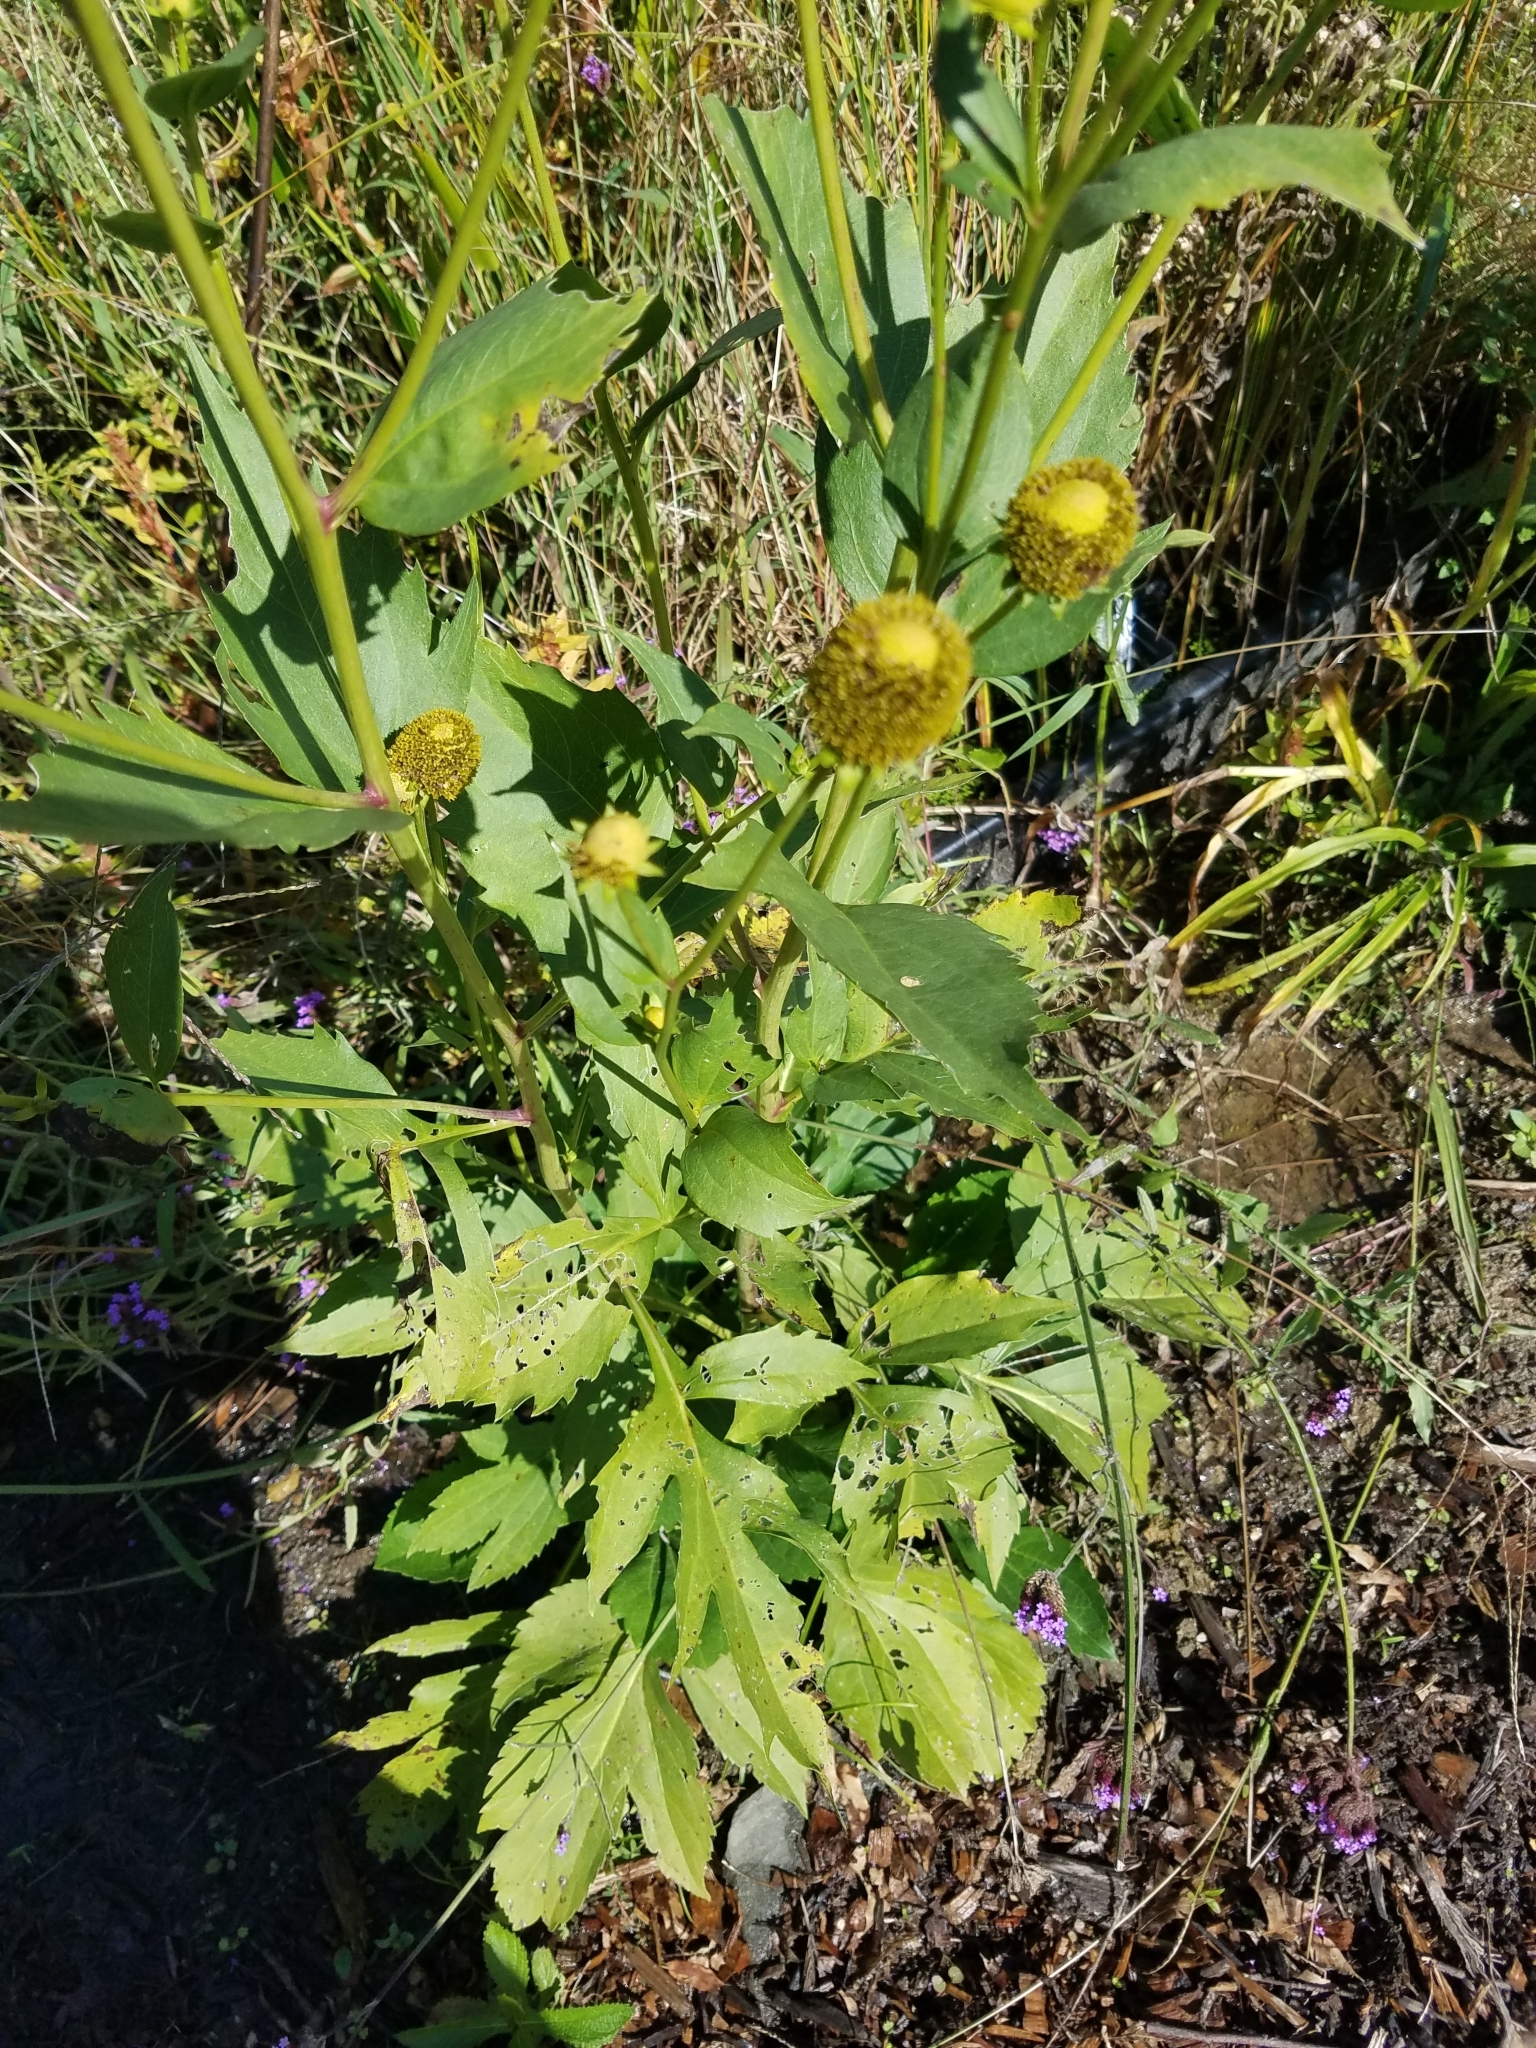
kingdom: Plantae
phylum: Tracheophyta
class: Magnoliopsida
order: Asterales
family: Asteraceae
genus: Rudbeckia
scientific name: Rudbeckia laciniata
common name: Coneflower
